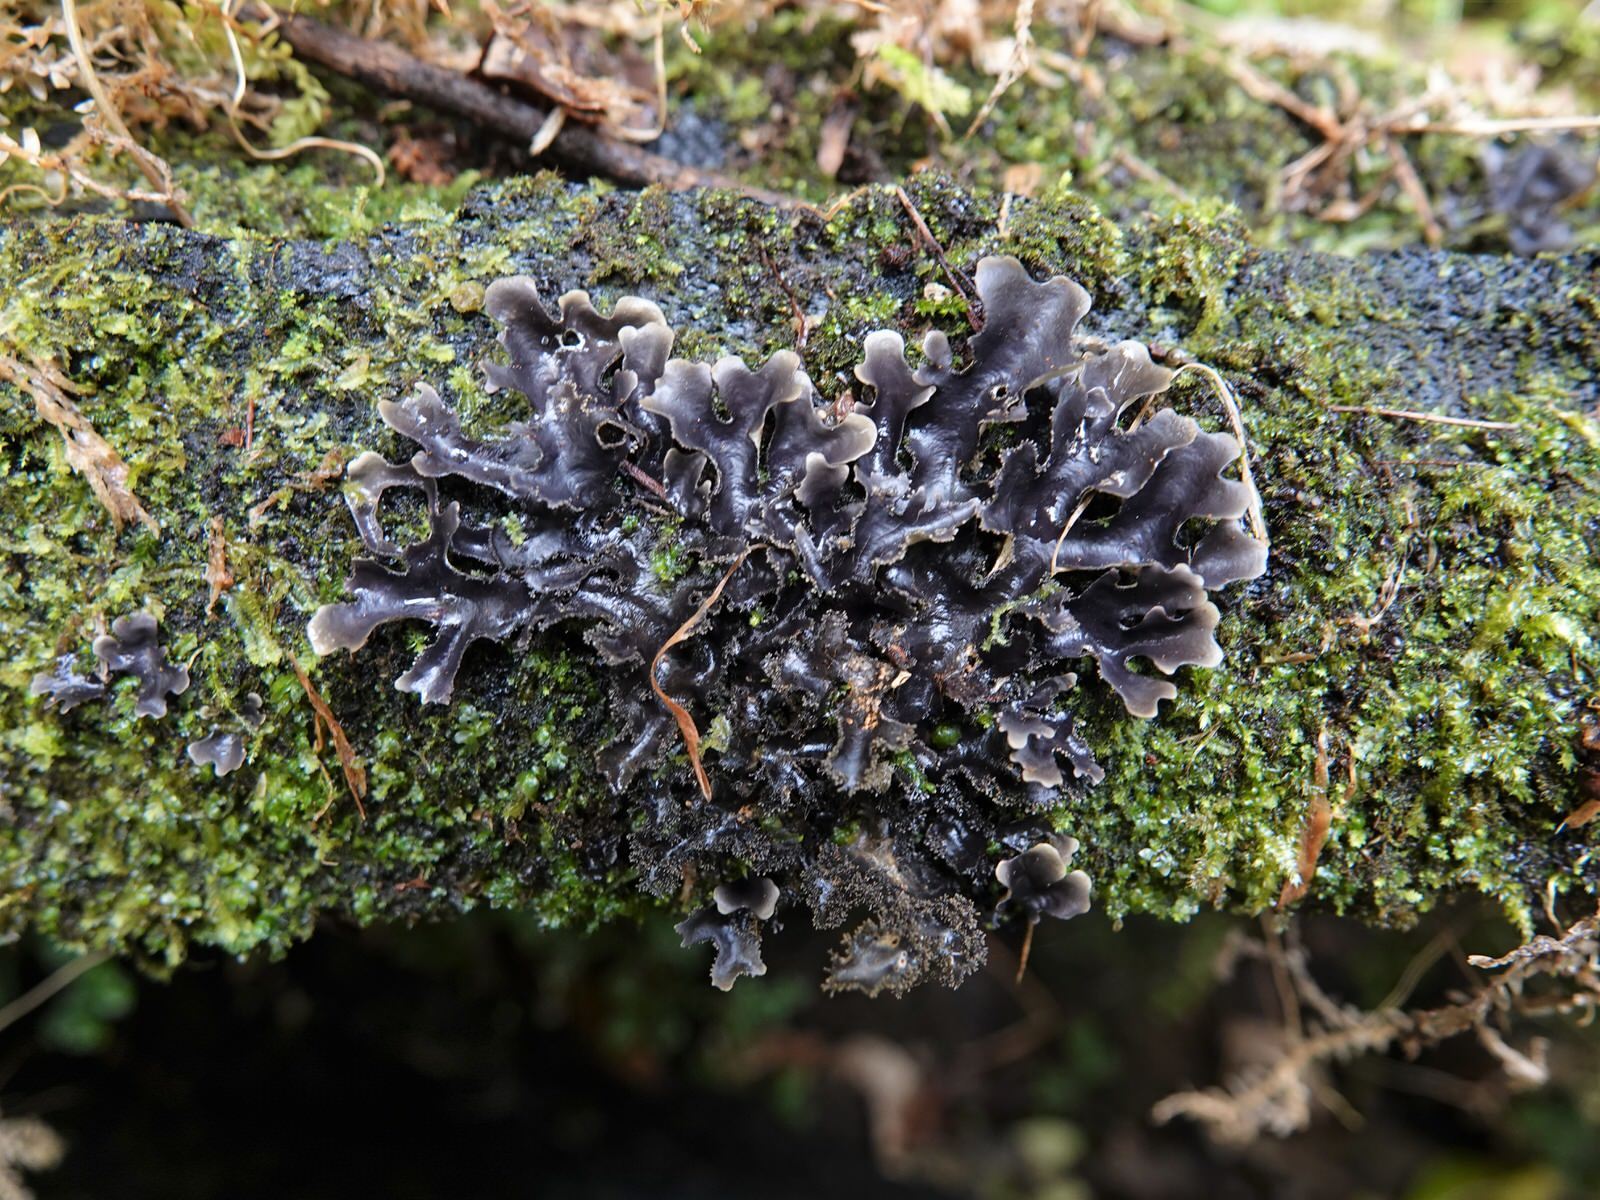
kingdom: Fungi
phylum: Ascomycota
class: Lecanoromycetes
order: Peltigerales
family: Lobariaceae
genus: Pseudocyphellaria
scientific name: Pseudocyphellaria dissimilis
